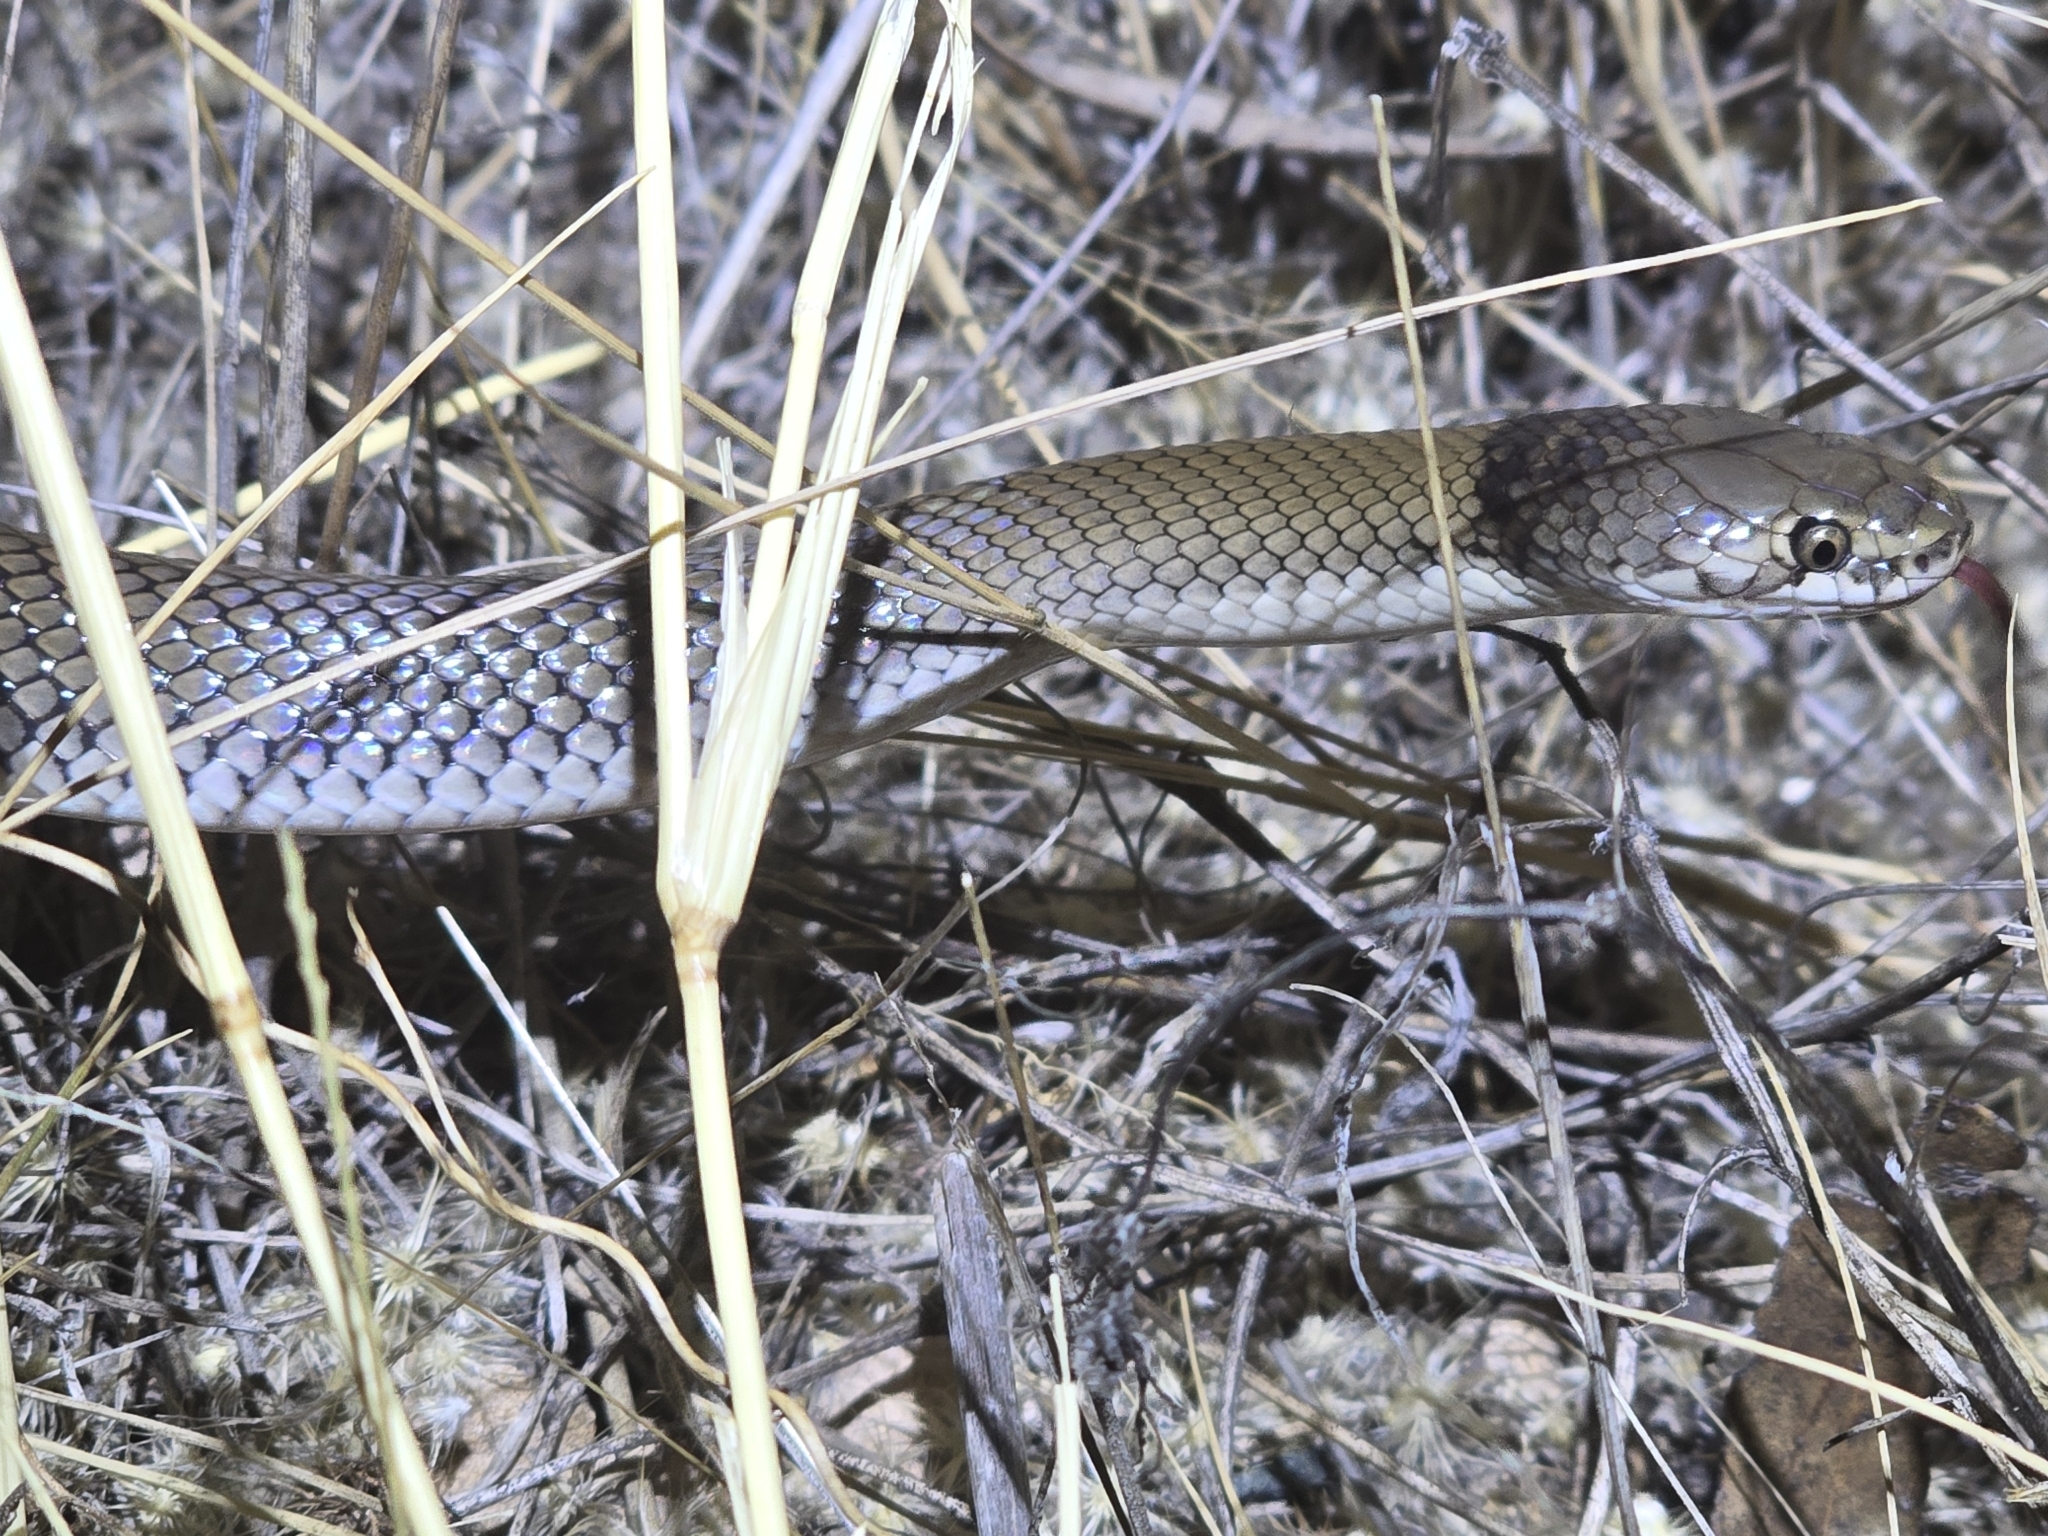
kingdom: Animalia
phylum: Chordata
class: Squamata
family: Elapidae
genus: Suta
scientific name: Suta suta
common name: Curl snake
